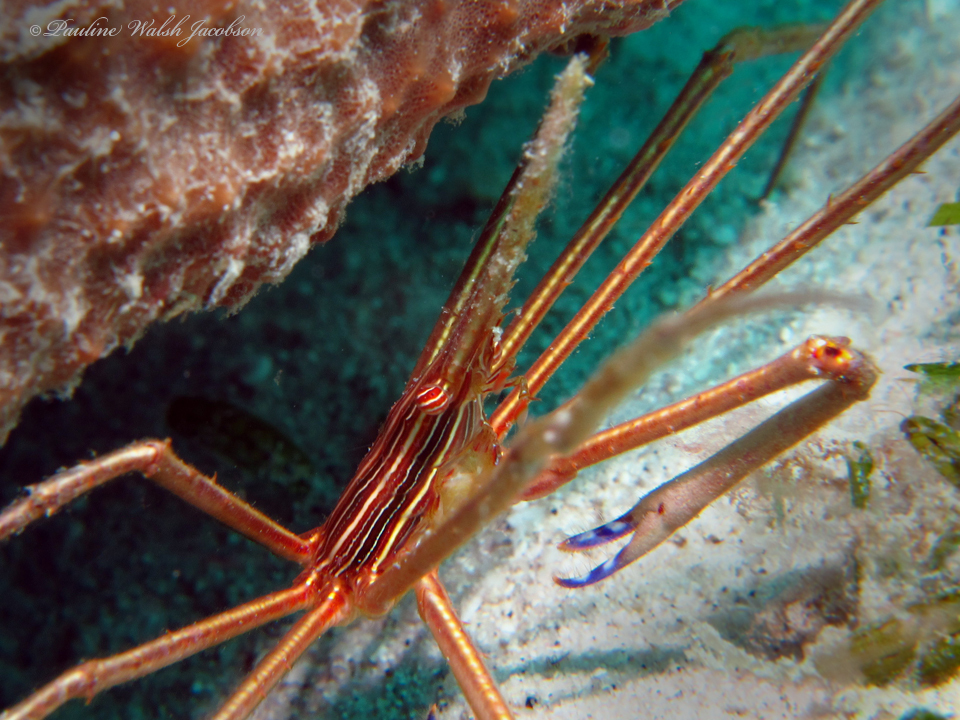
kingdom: Animalia
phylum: Arthropoda
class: Malacostraca
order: Decapoda
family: Inachoididae
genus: Stenorhynchus
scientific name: Stenorhynchus seticornis
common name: Arrow crab
